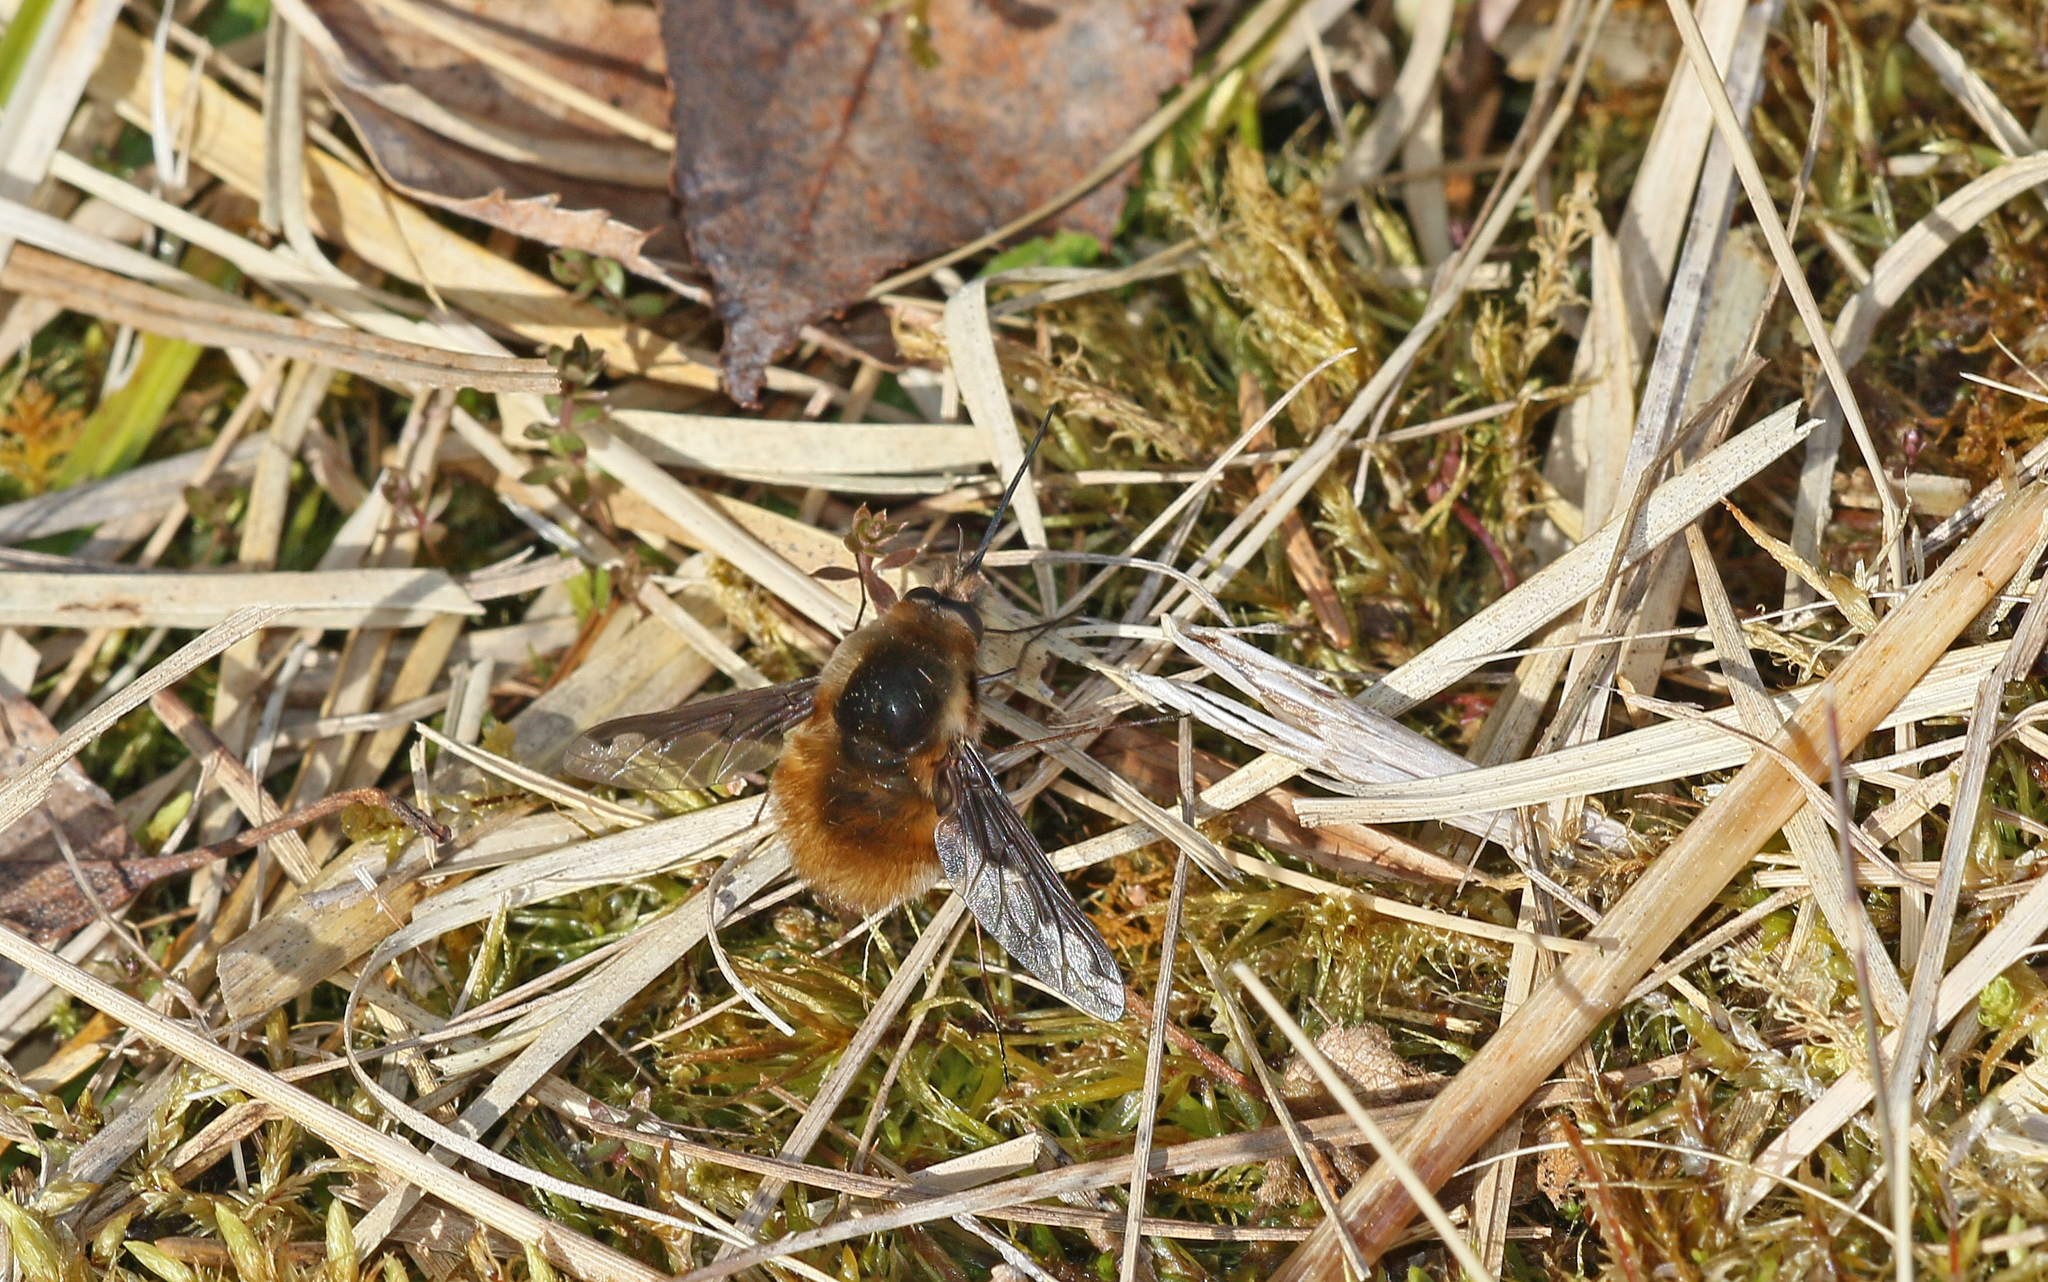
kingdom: Animalia
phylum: Arthropoda
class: Insecta
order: Diptera
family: Bombyliidae
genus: Bombylius
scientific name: Bombylius major
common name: Bee fly
